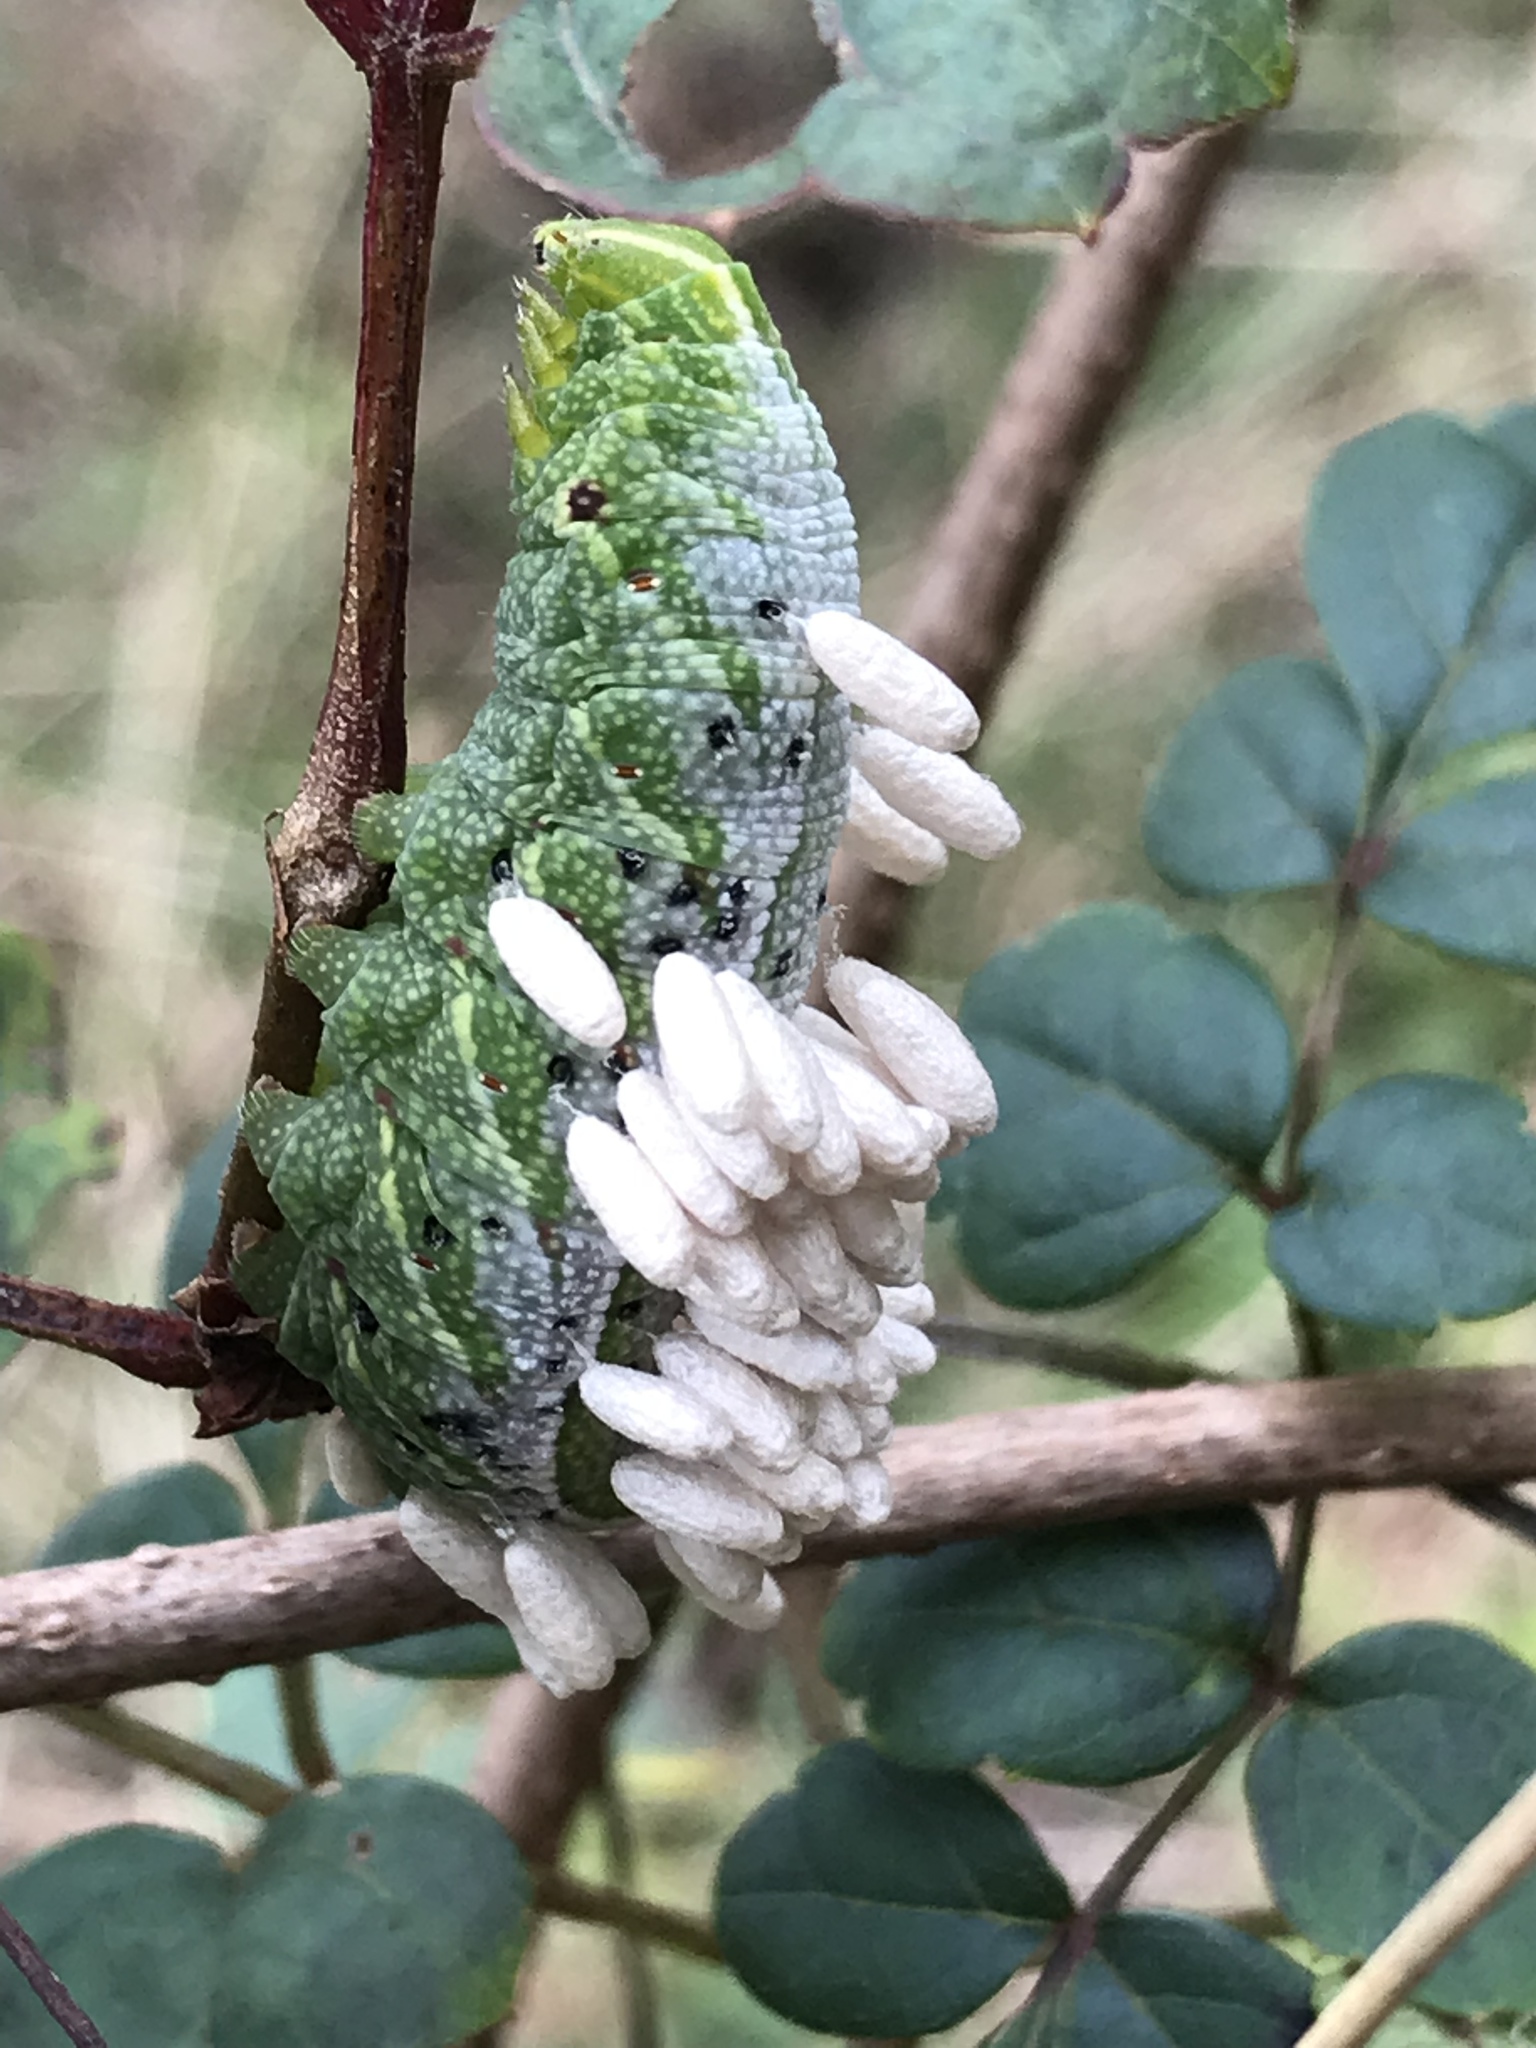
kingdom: Animalia
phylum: Arthropoda
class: Insecta
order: Lepidoptera
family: Sphingidae
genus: Enyo
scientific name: Enyo lugubris
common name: Mournful sphinx
